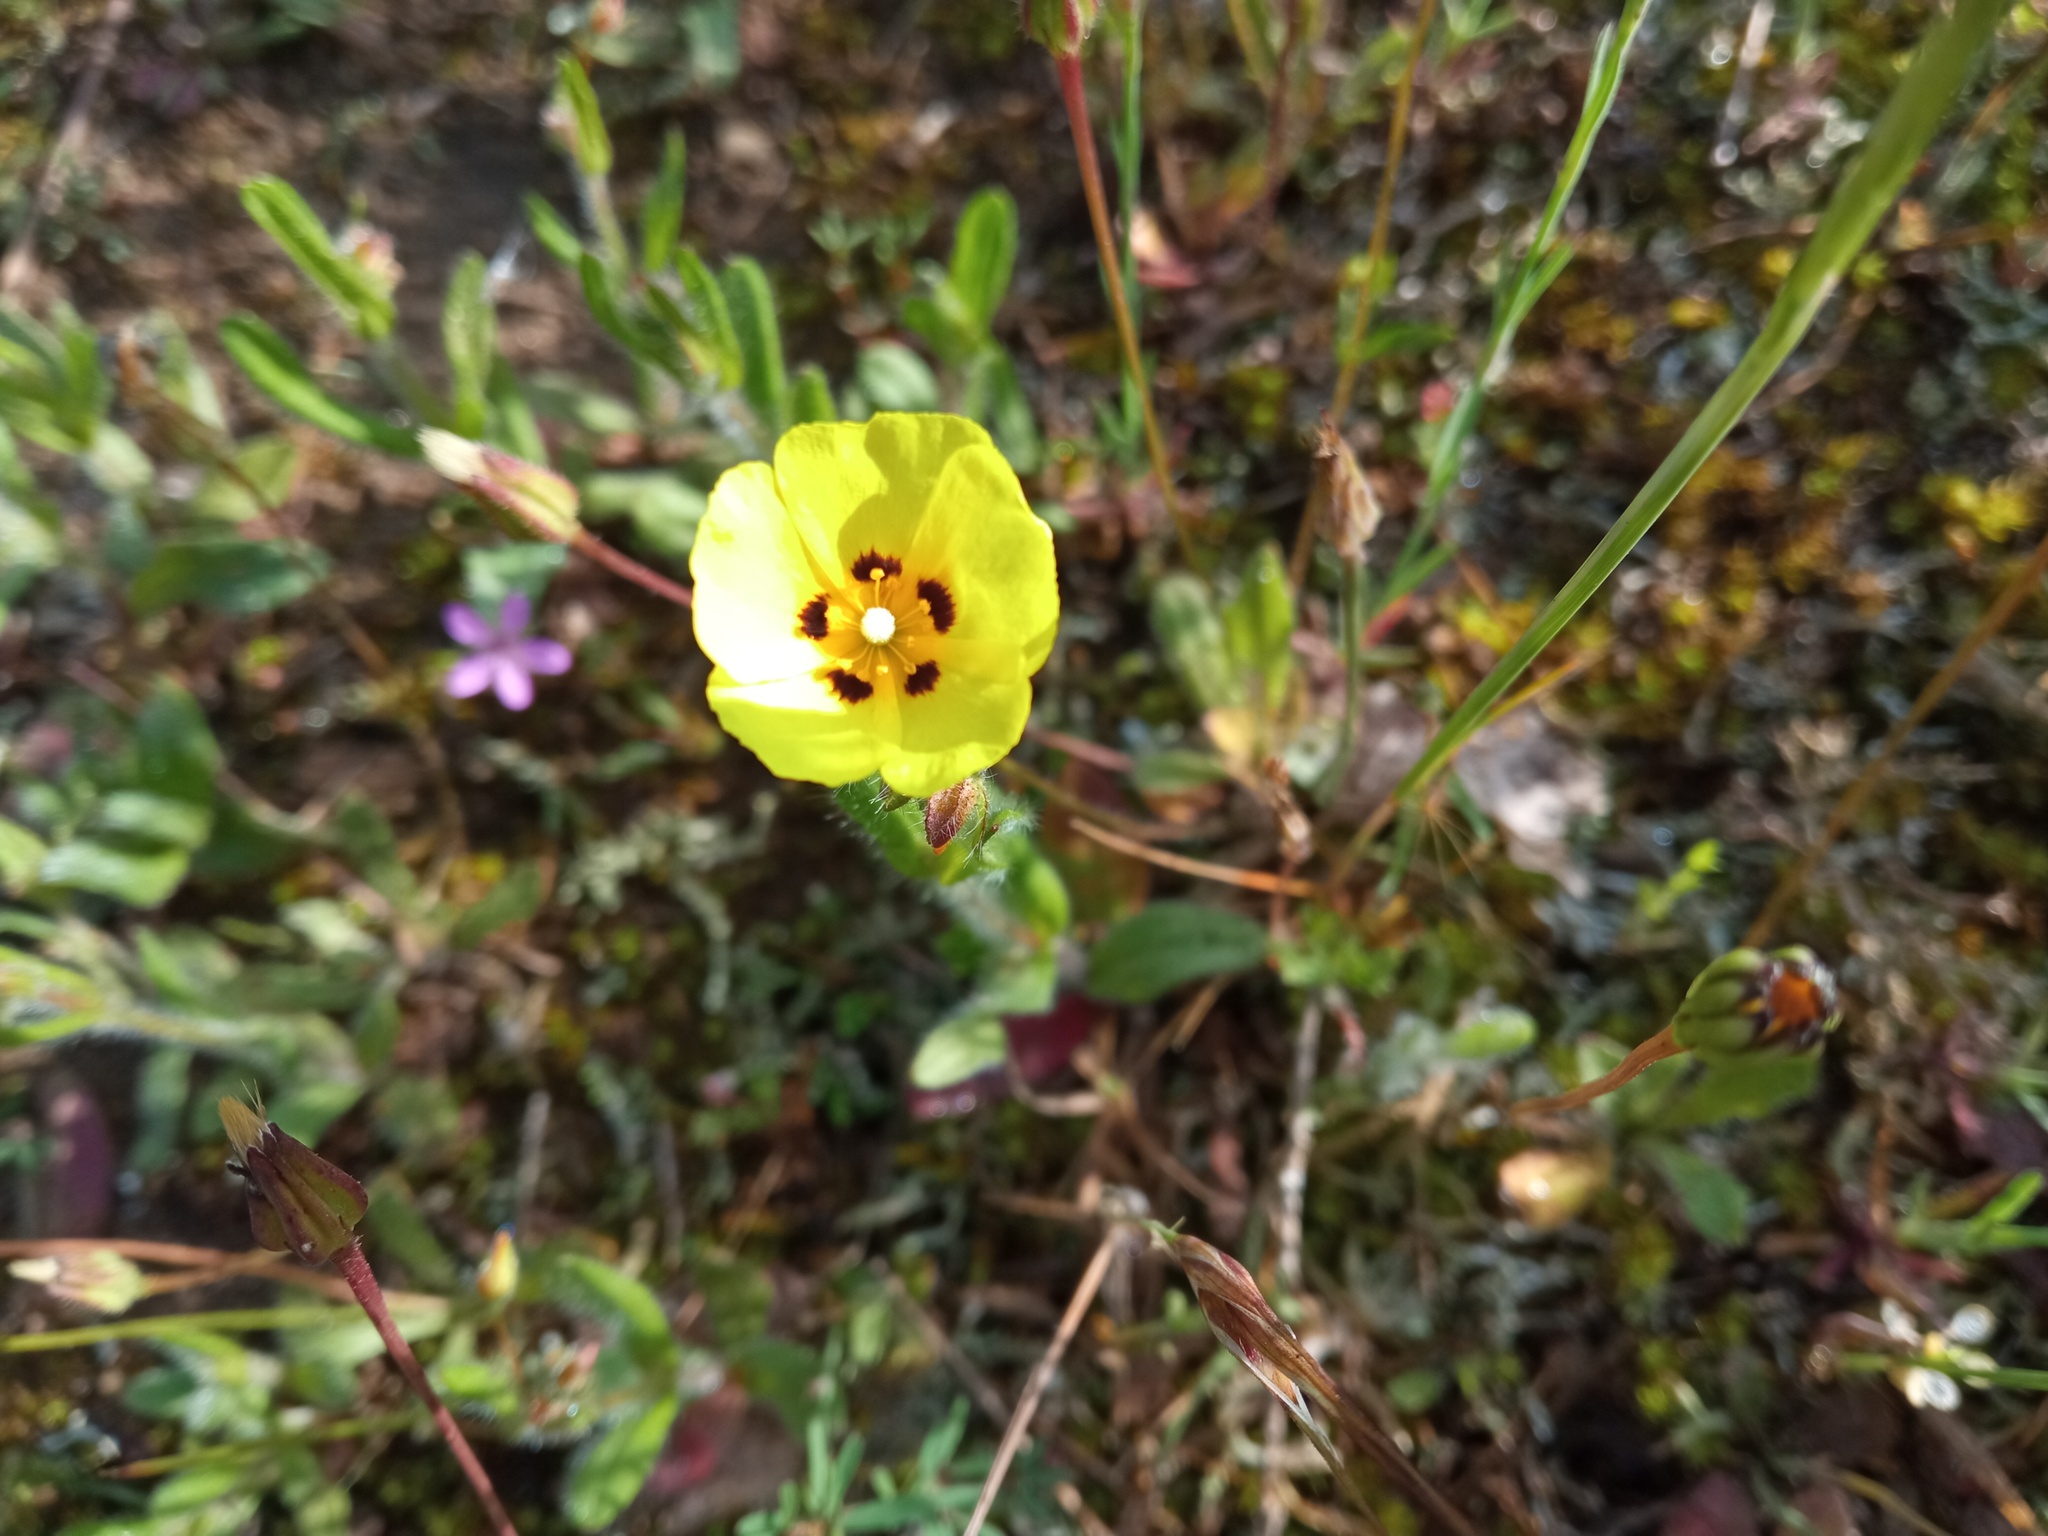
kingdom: Plantae
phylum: Tracheophyta
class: Magnoliopsida
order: Malvales
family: Cistaceae
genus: Tuberaria
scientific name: Tuberaria guttata
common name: Spotted rock-rose
